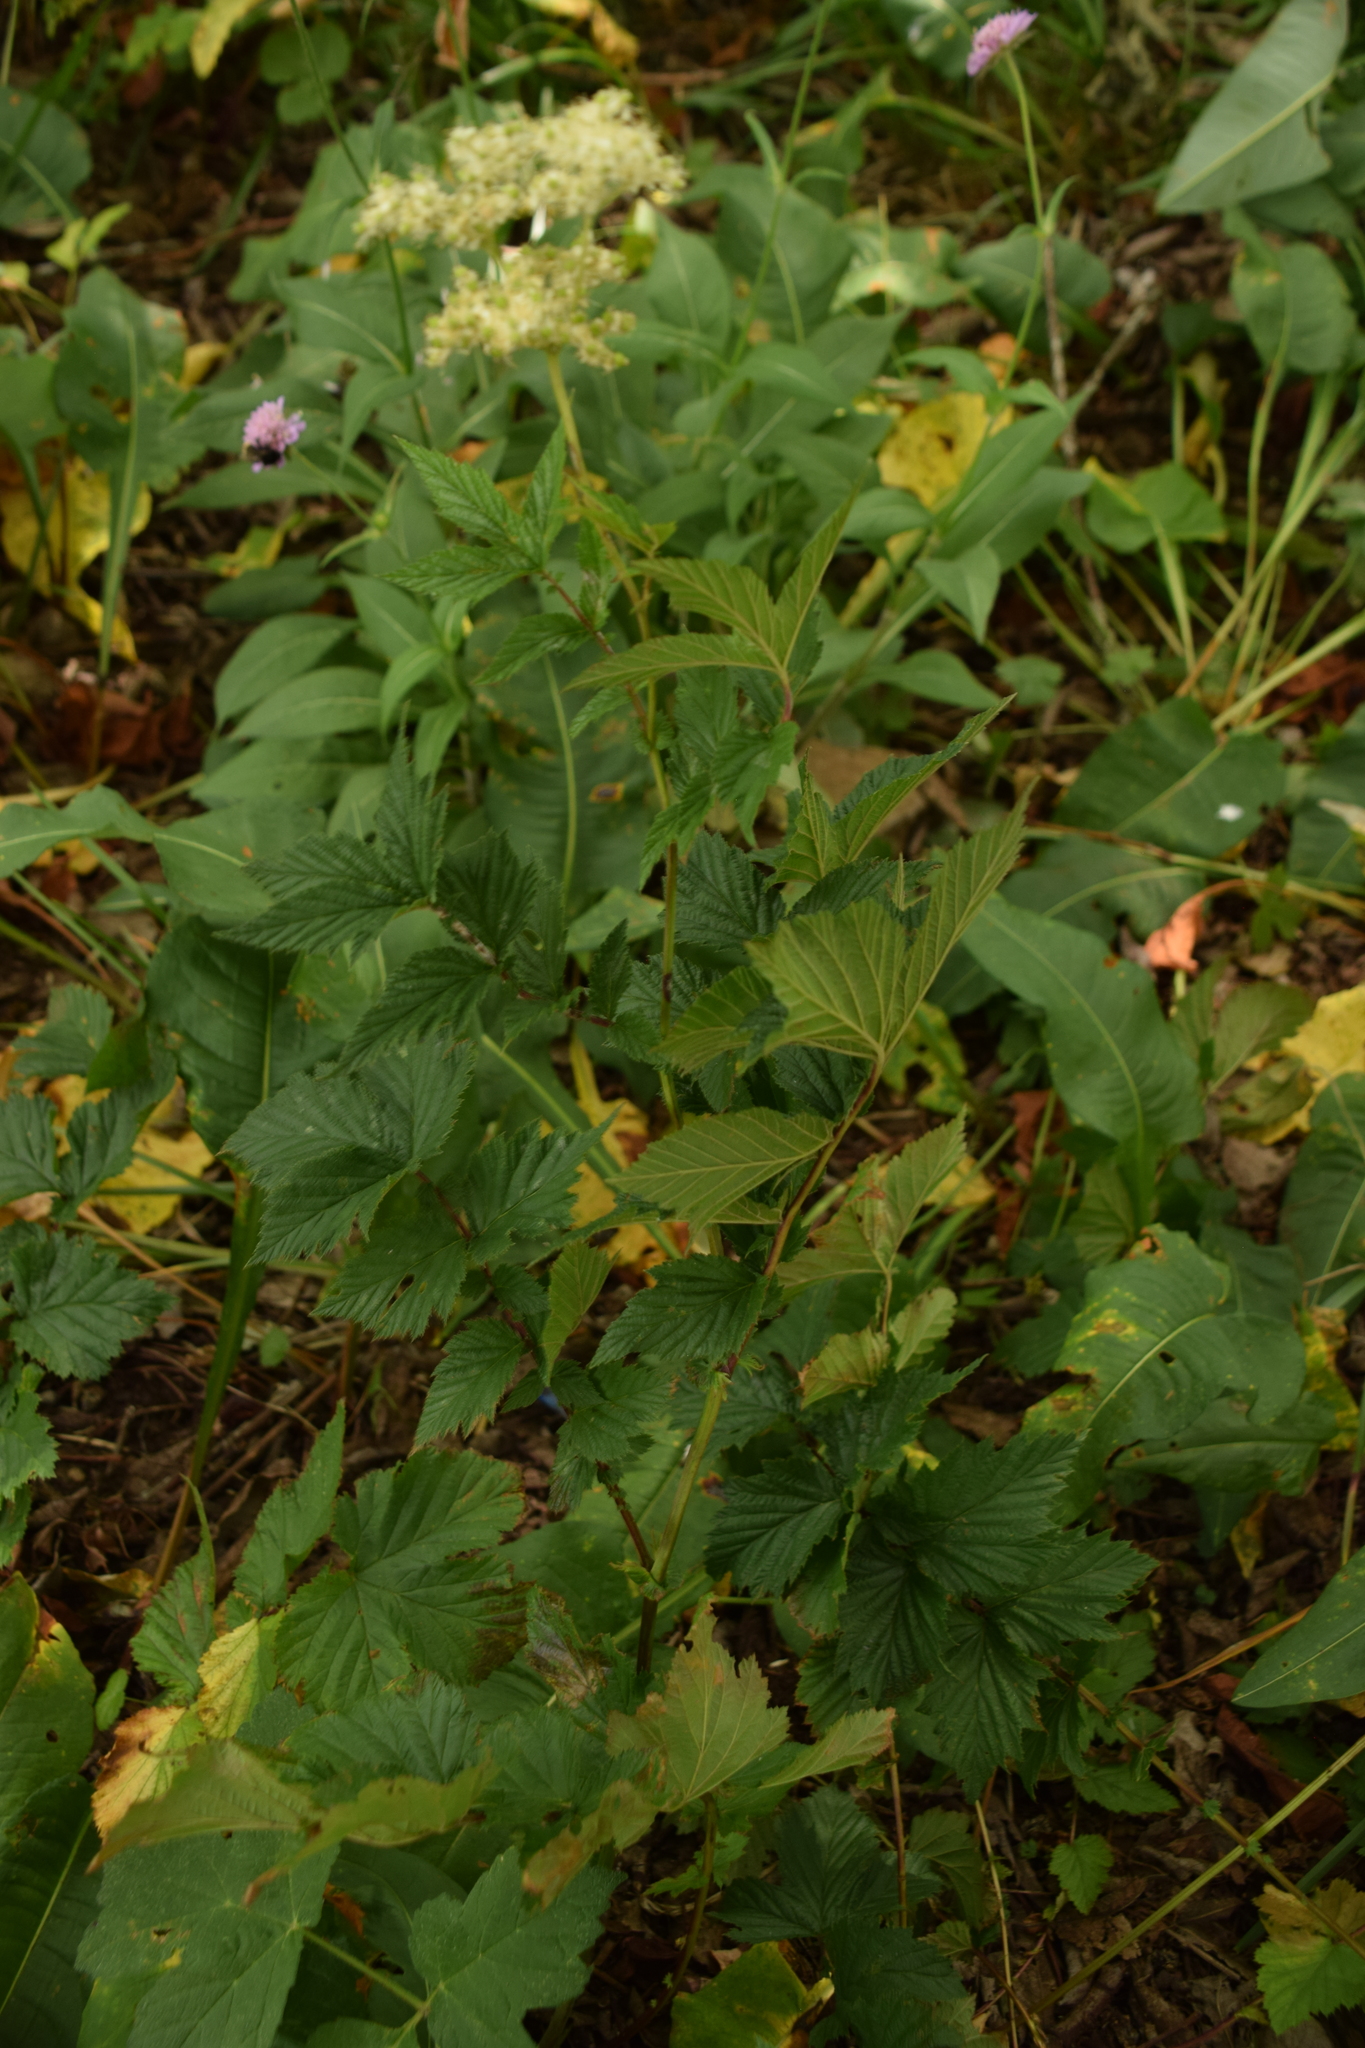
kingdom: Plantae
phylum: Tracheophyta
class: Magnoliopsida
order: Rosales
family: Rosaceae
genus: Filipendula
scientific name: Filipendula ulmaria
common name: Meadowsweet
